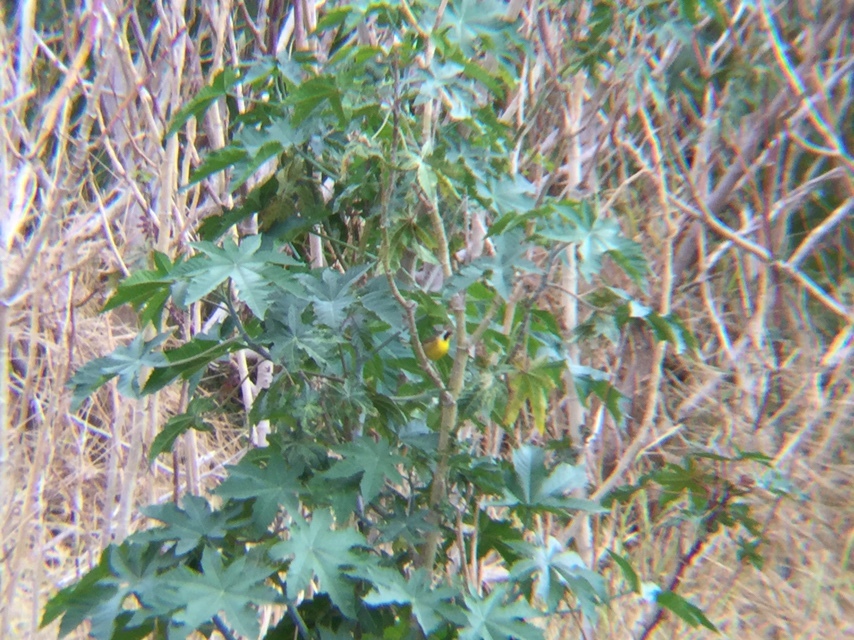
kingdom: Animalia
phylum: Chordata
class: Aves
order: Passeriformes
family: Tyrannidae
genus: Pitangus
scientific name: Pitangus sulphuratus
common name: Great kiskadee
